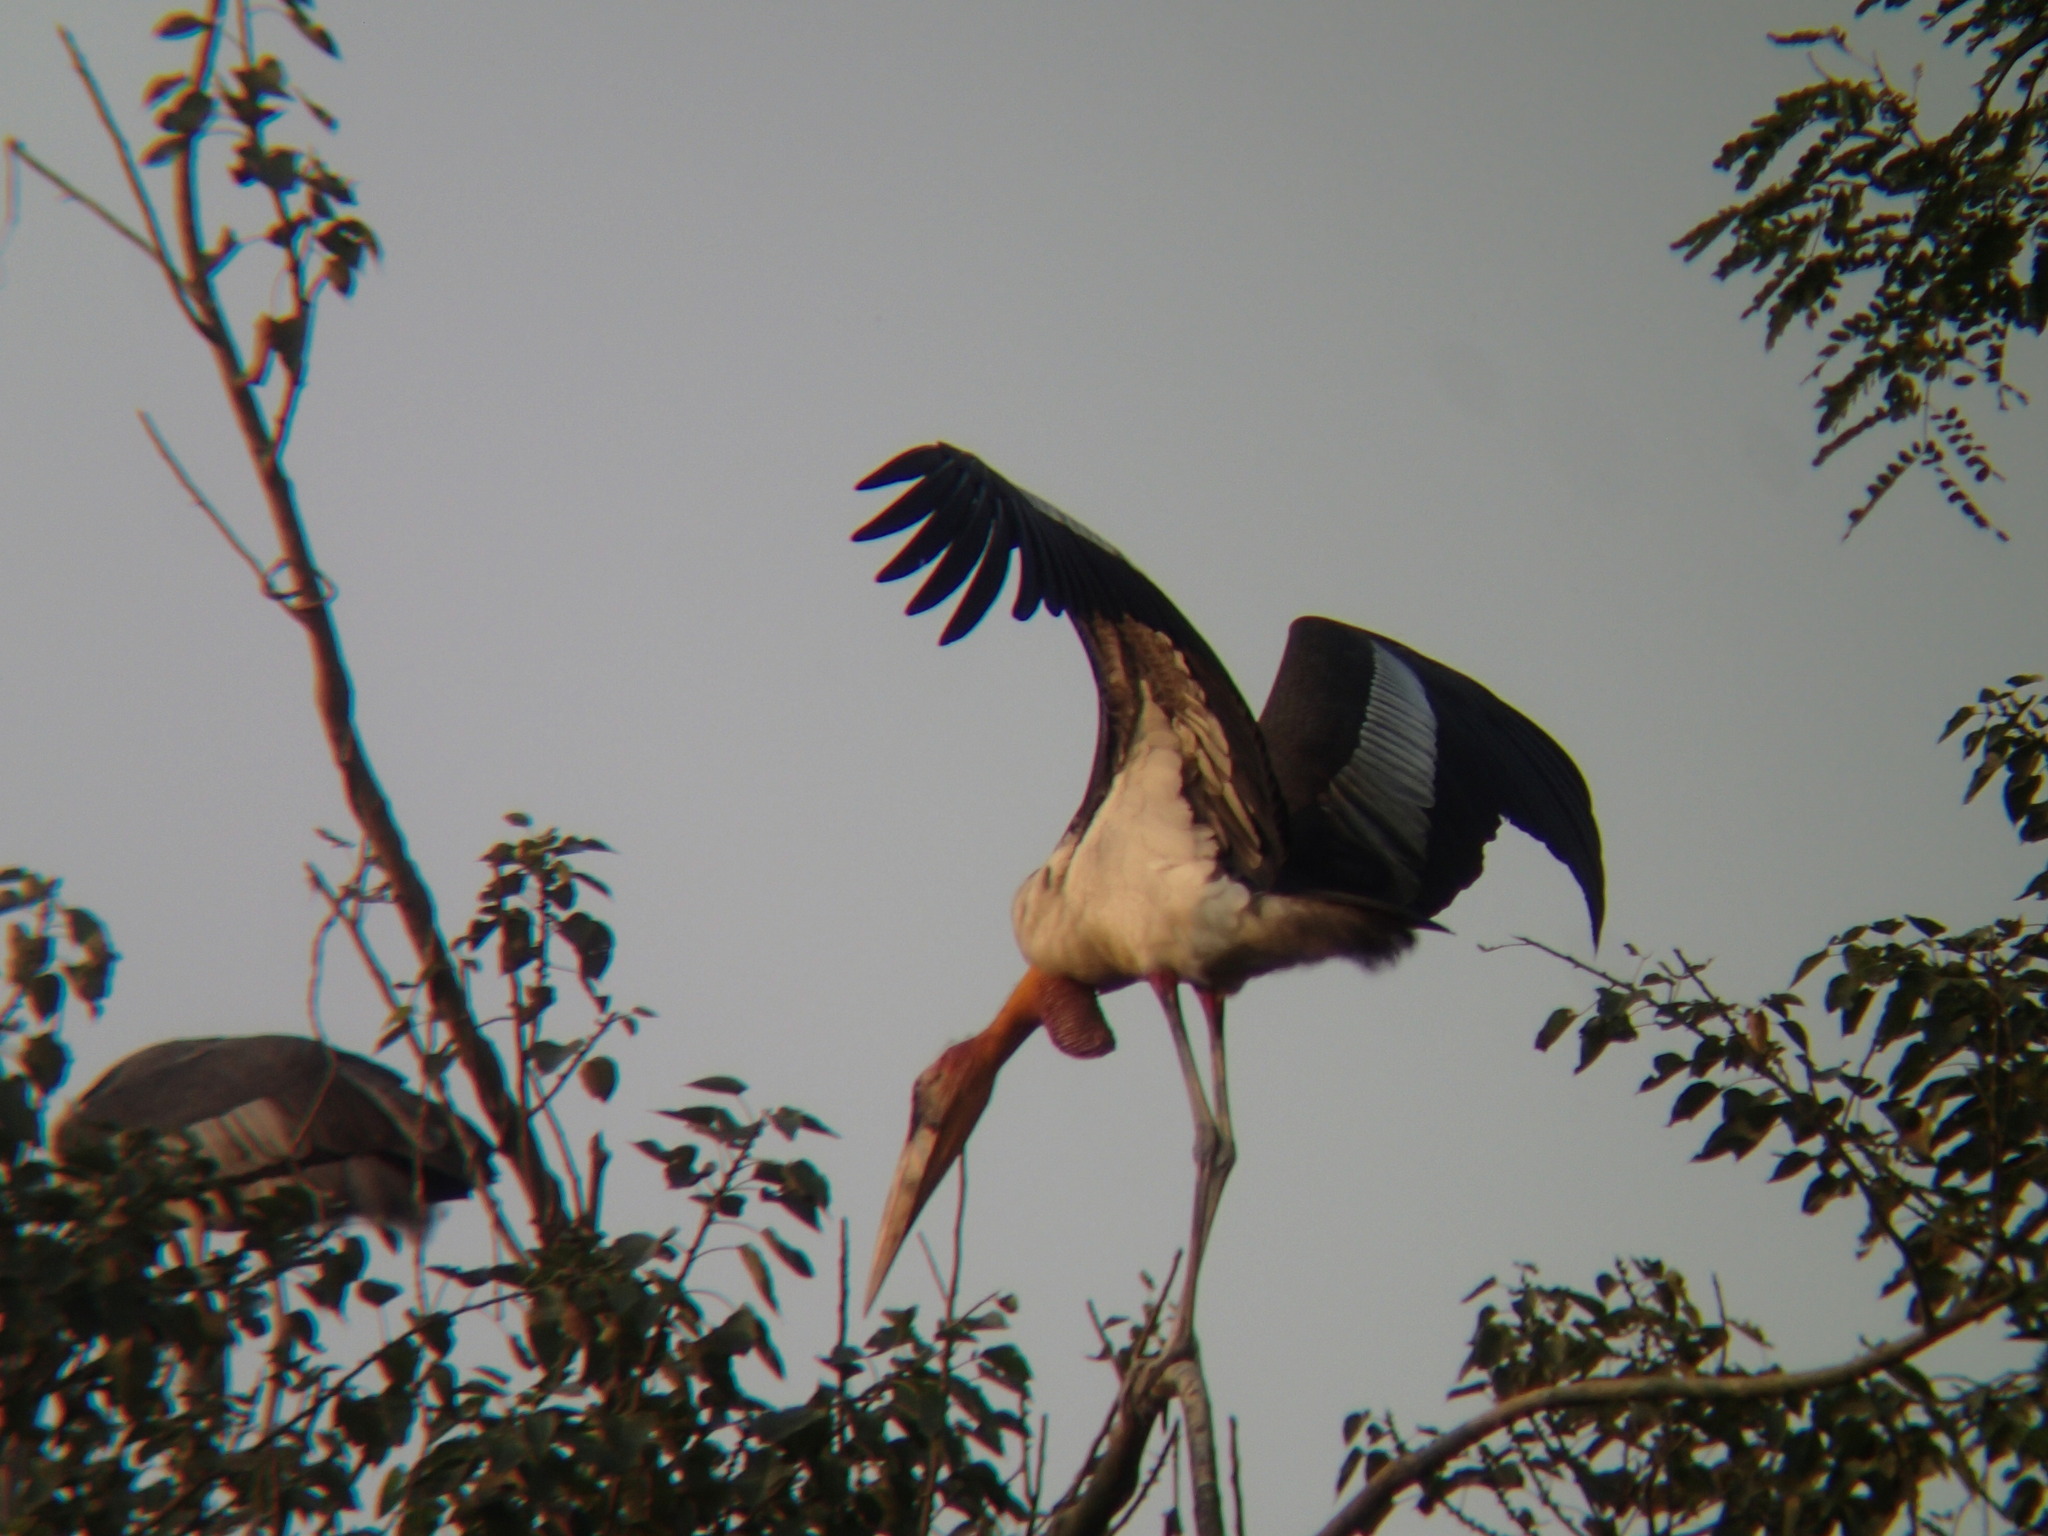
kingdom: Animalia
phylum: Chordata
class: Aves
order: Ciconiiformes
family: Ciconiidae
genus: Leptoptilos
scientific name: Leptoptilos dubius
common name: Greater adjutant
